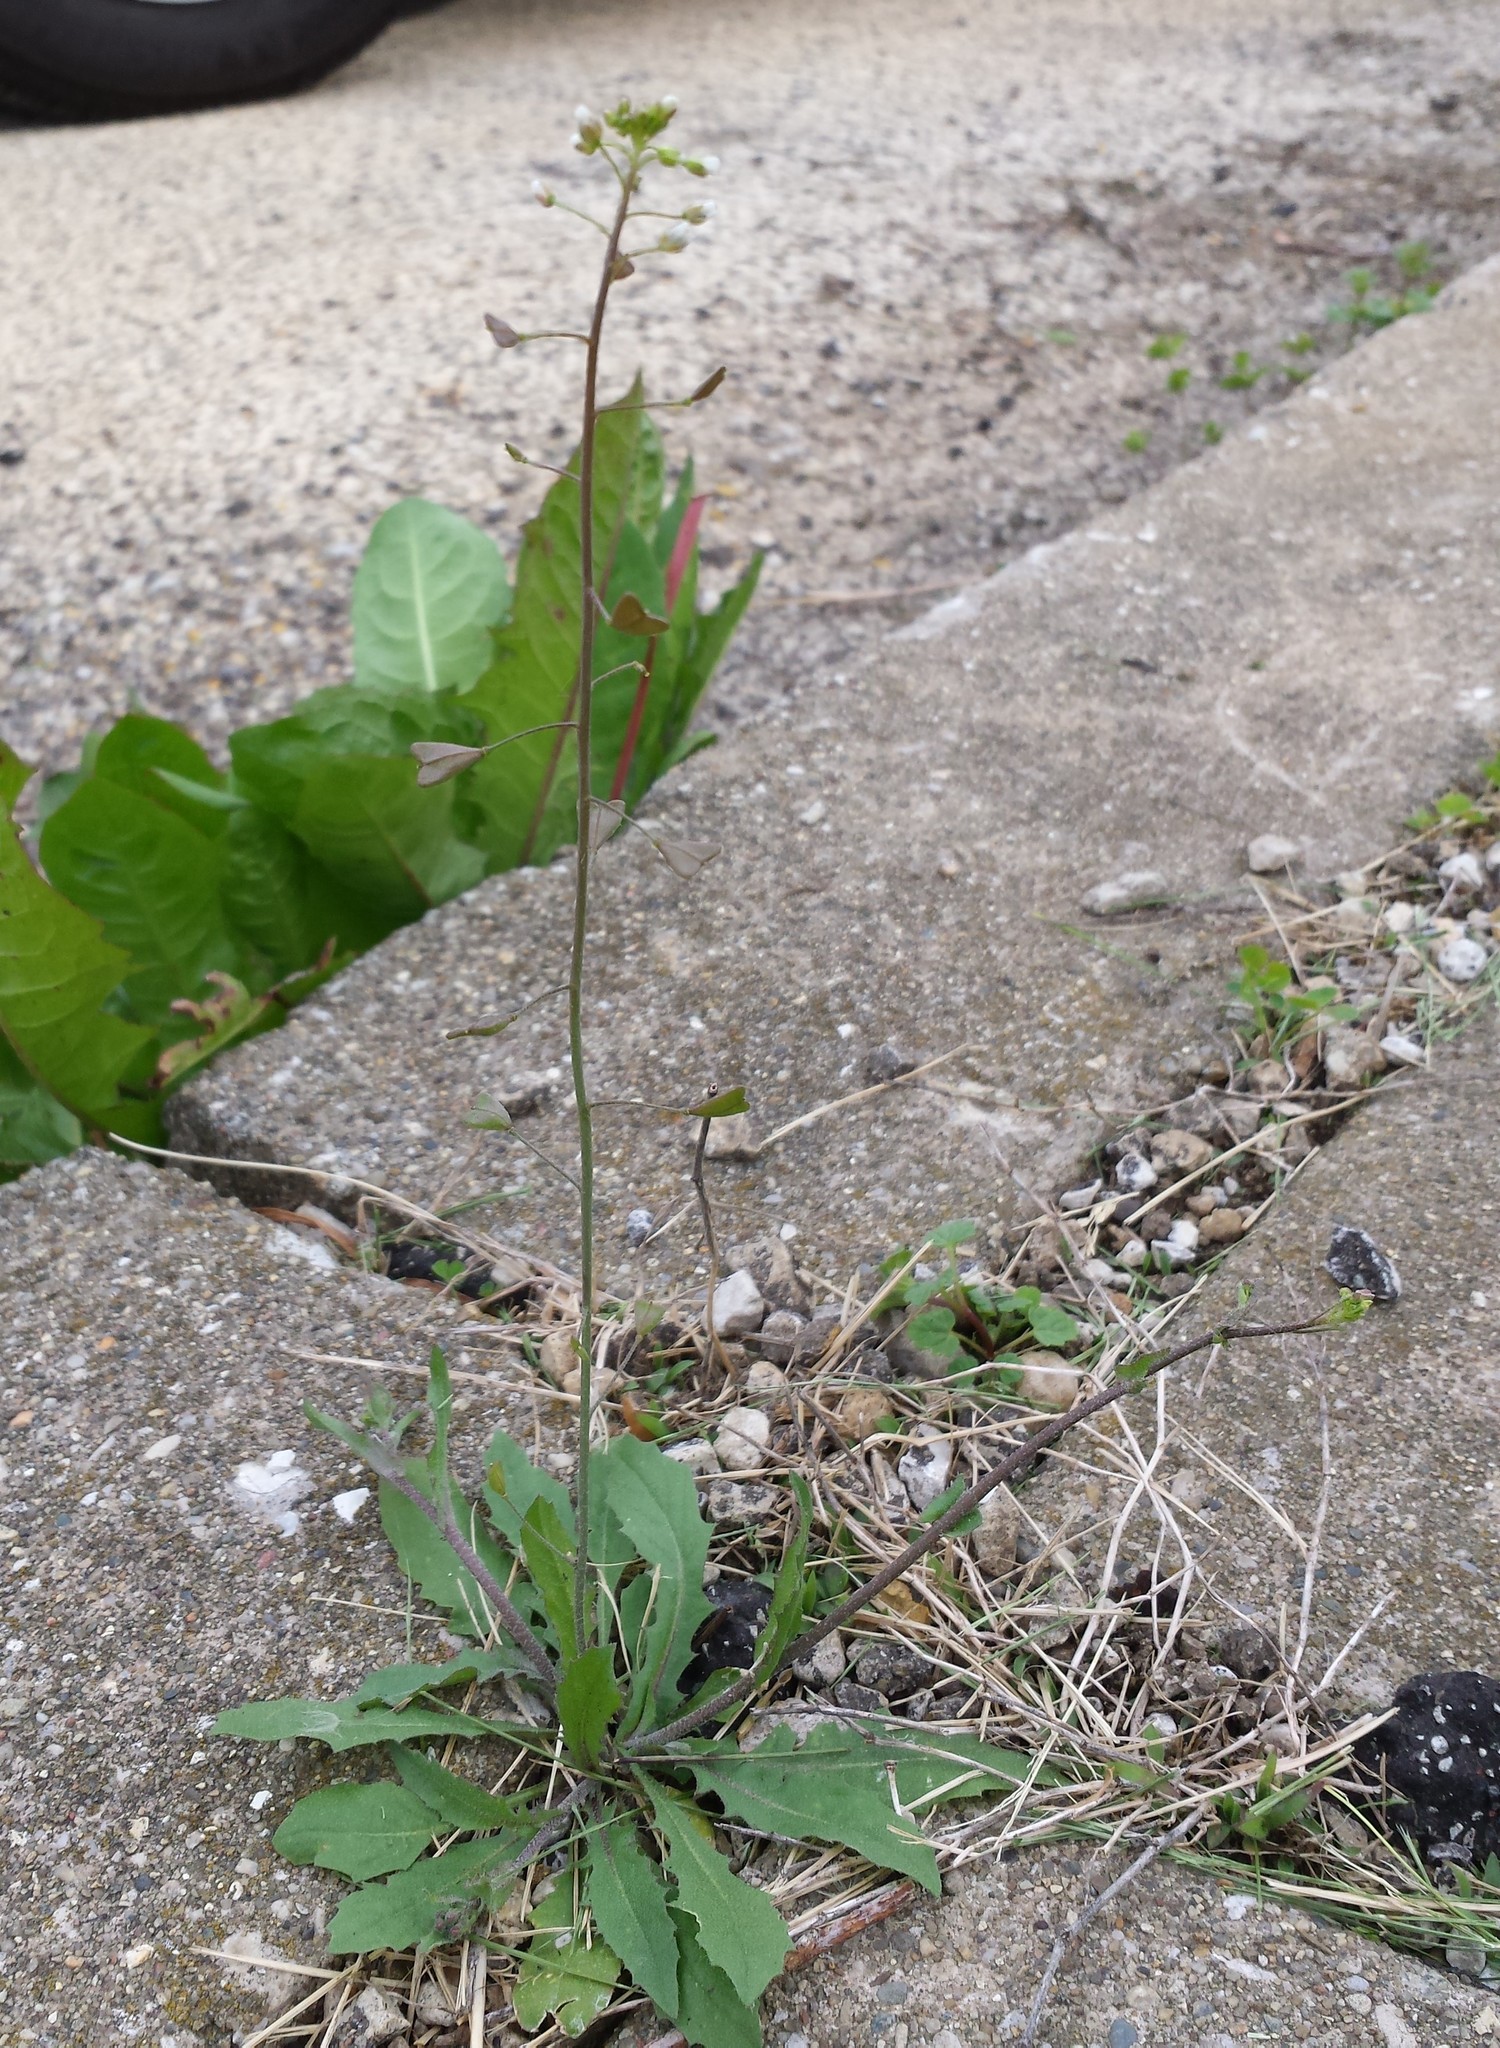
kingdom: Plantae
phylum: Tracheophyta
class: Magnoliopsida
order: Brassicales
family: Brassicaceae
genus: Capsella
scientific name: Capsella bursa-pastoris
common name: Shepherd's purse
